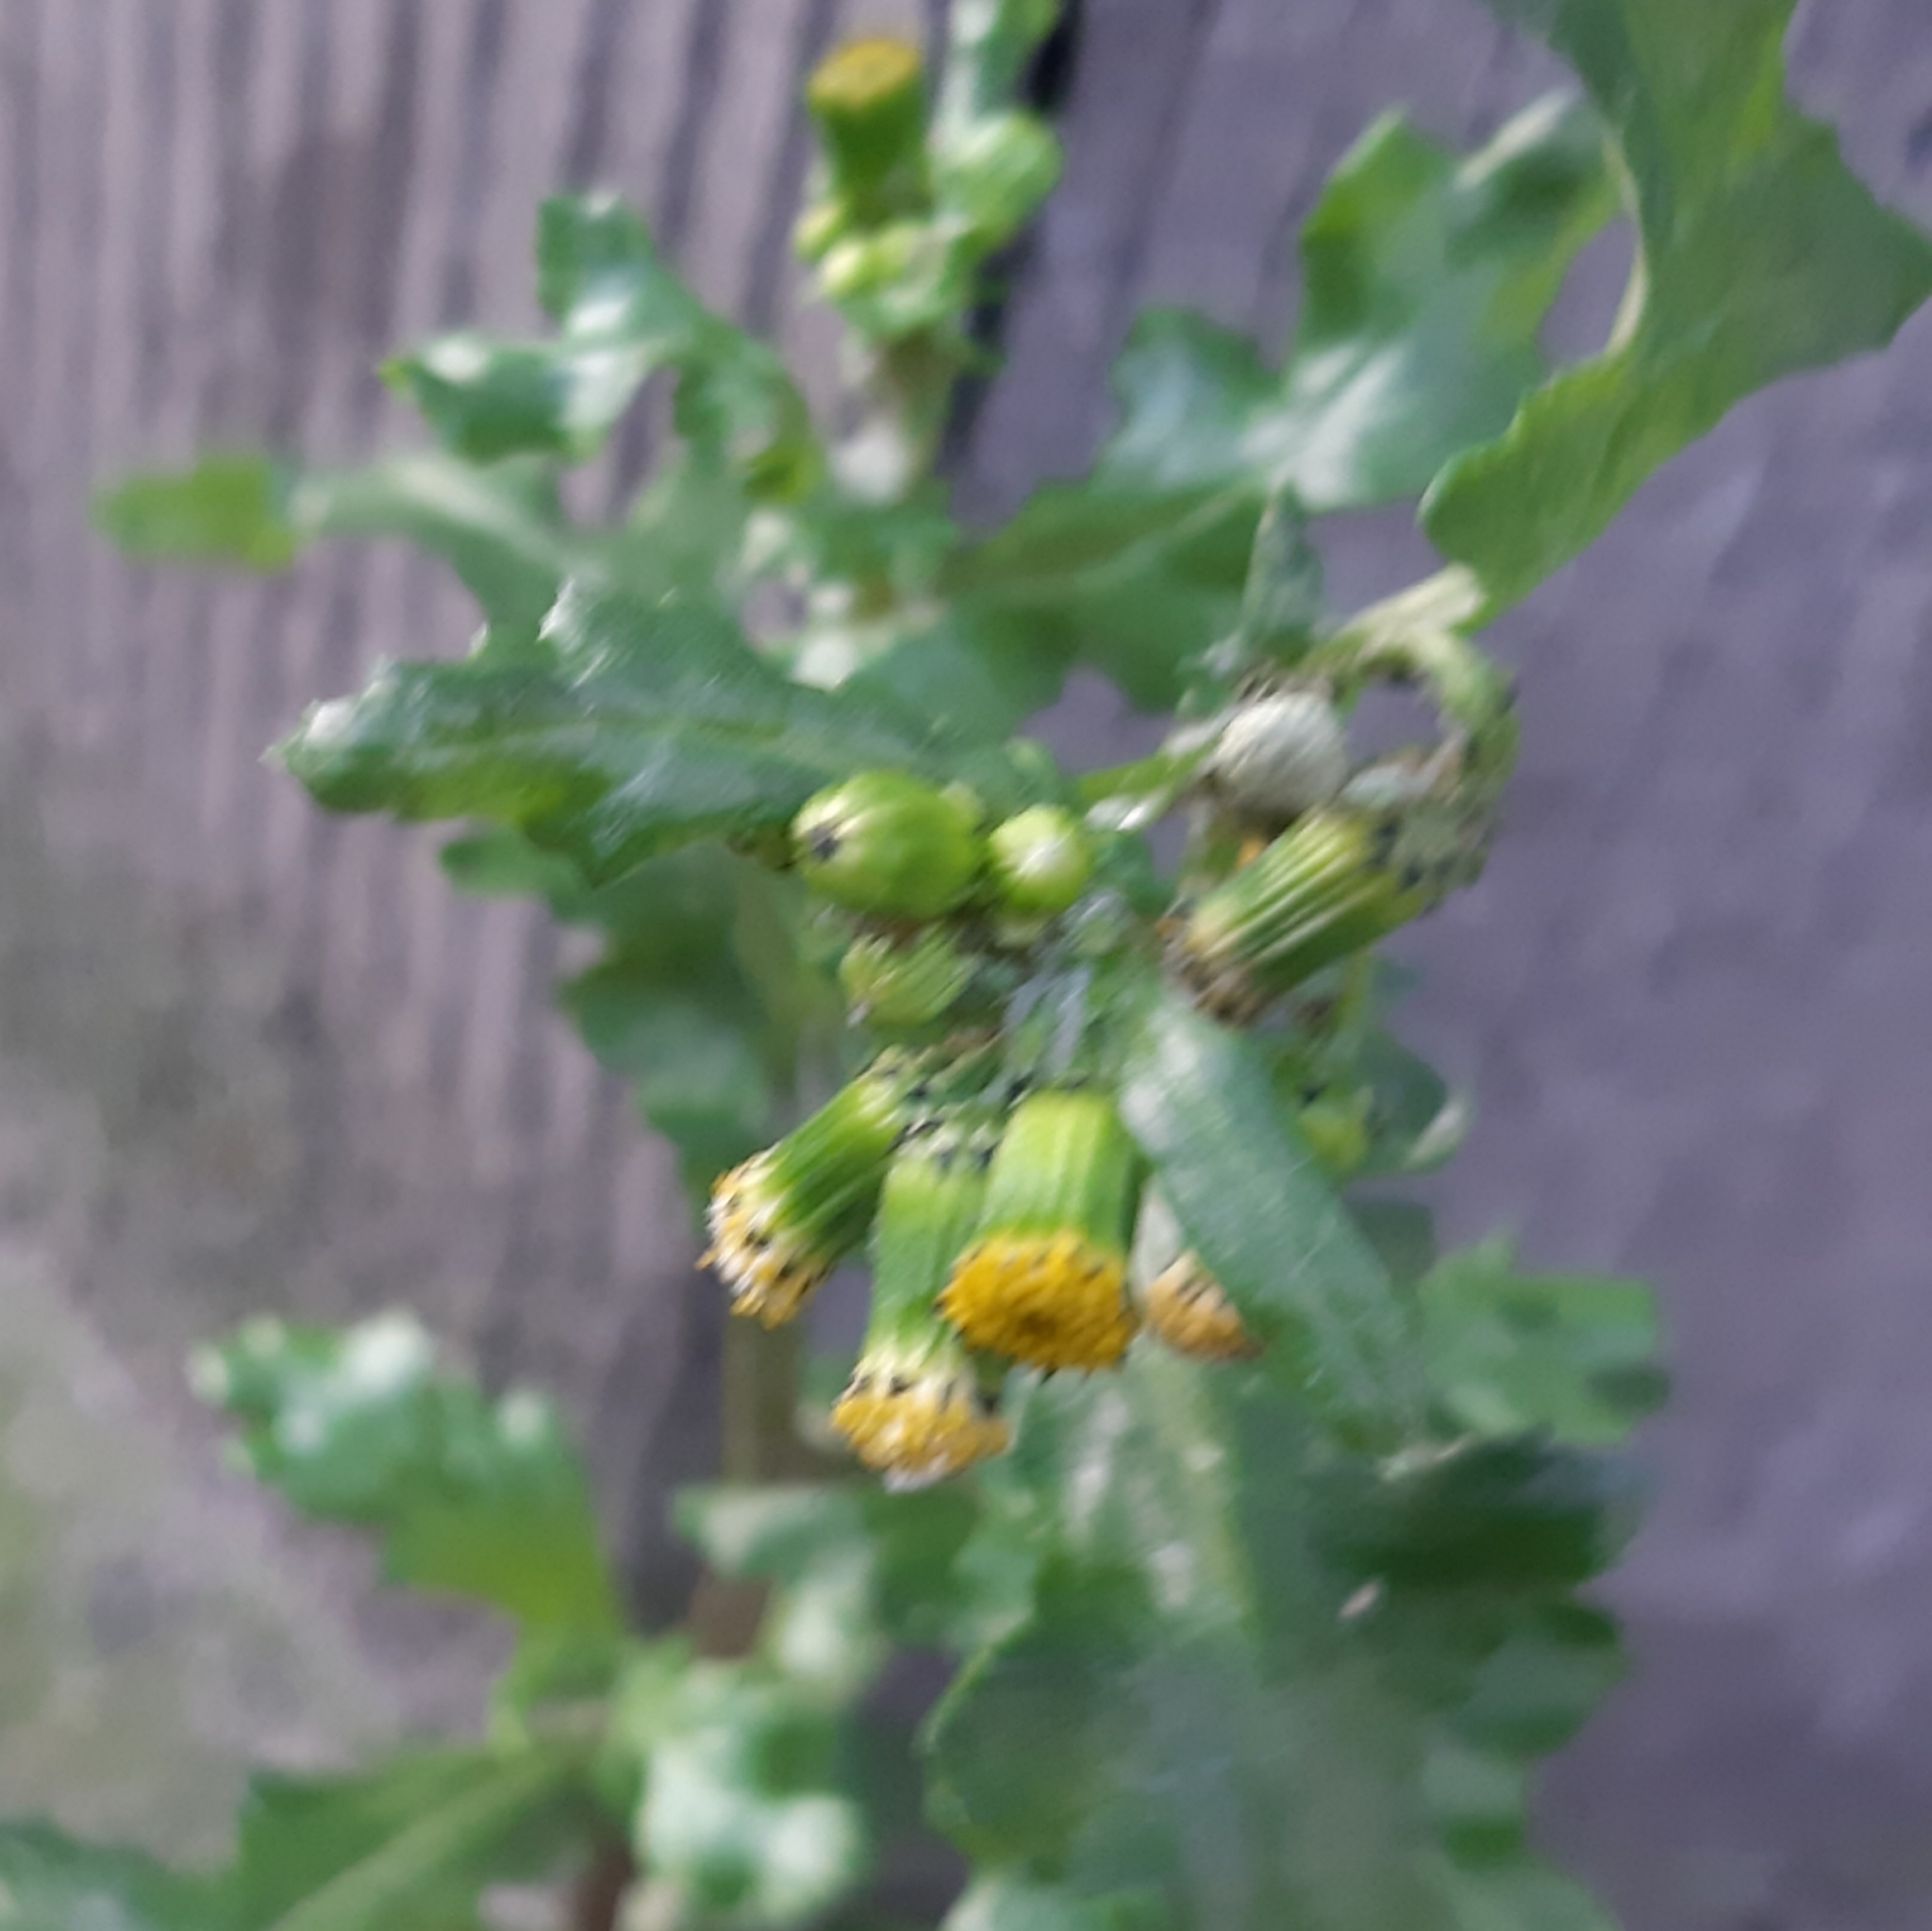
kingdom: Plantae
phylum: Tracheophyta
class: Magnoliopsida
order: Asterales
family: Asteraceae
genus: Senecio
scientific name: Senecio vulgaris
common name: Old-man-in-the-spring
